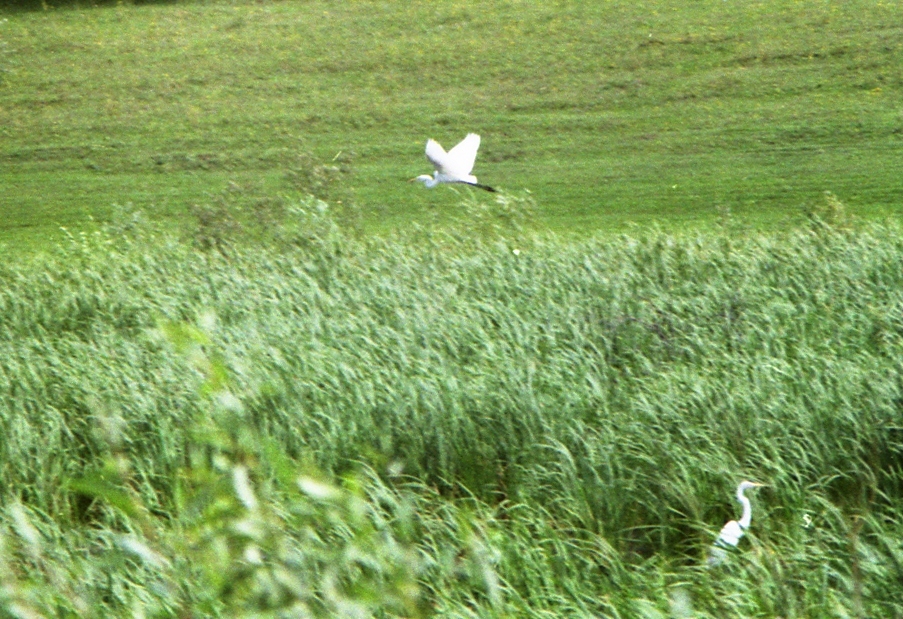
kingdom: Animalia
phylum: Chordata
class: Aves
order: Pelecaniformes
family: Ardeidae
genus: Ardea
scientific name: Ardea alba
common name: Great egret
